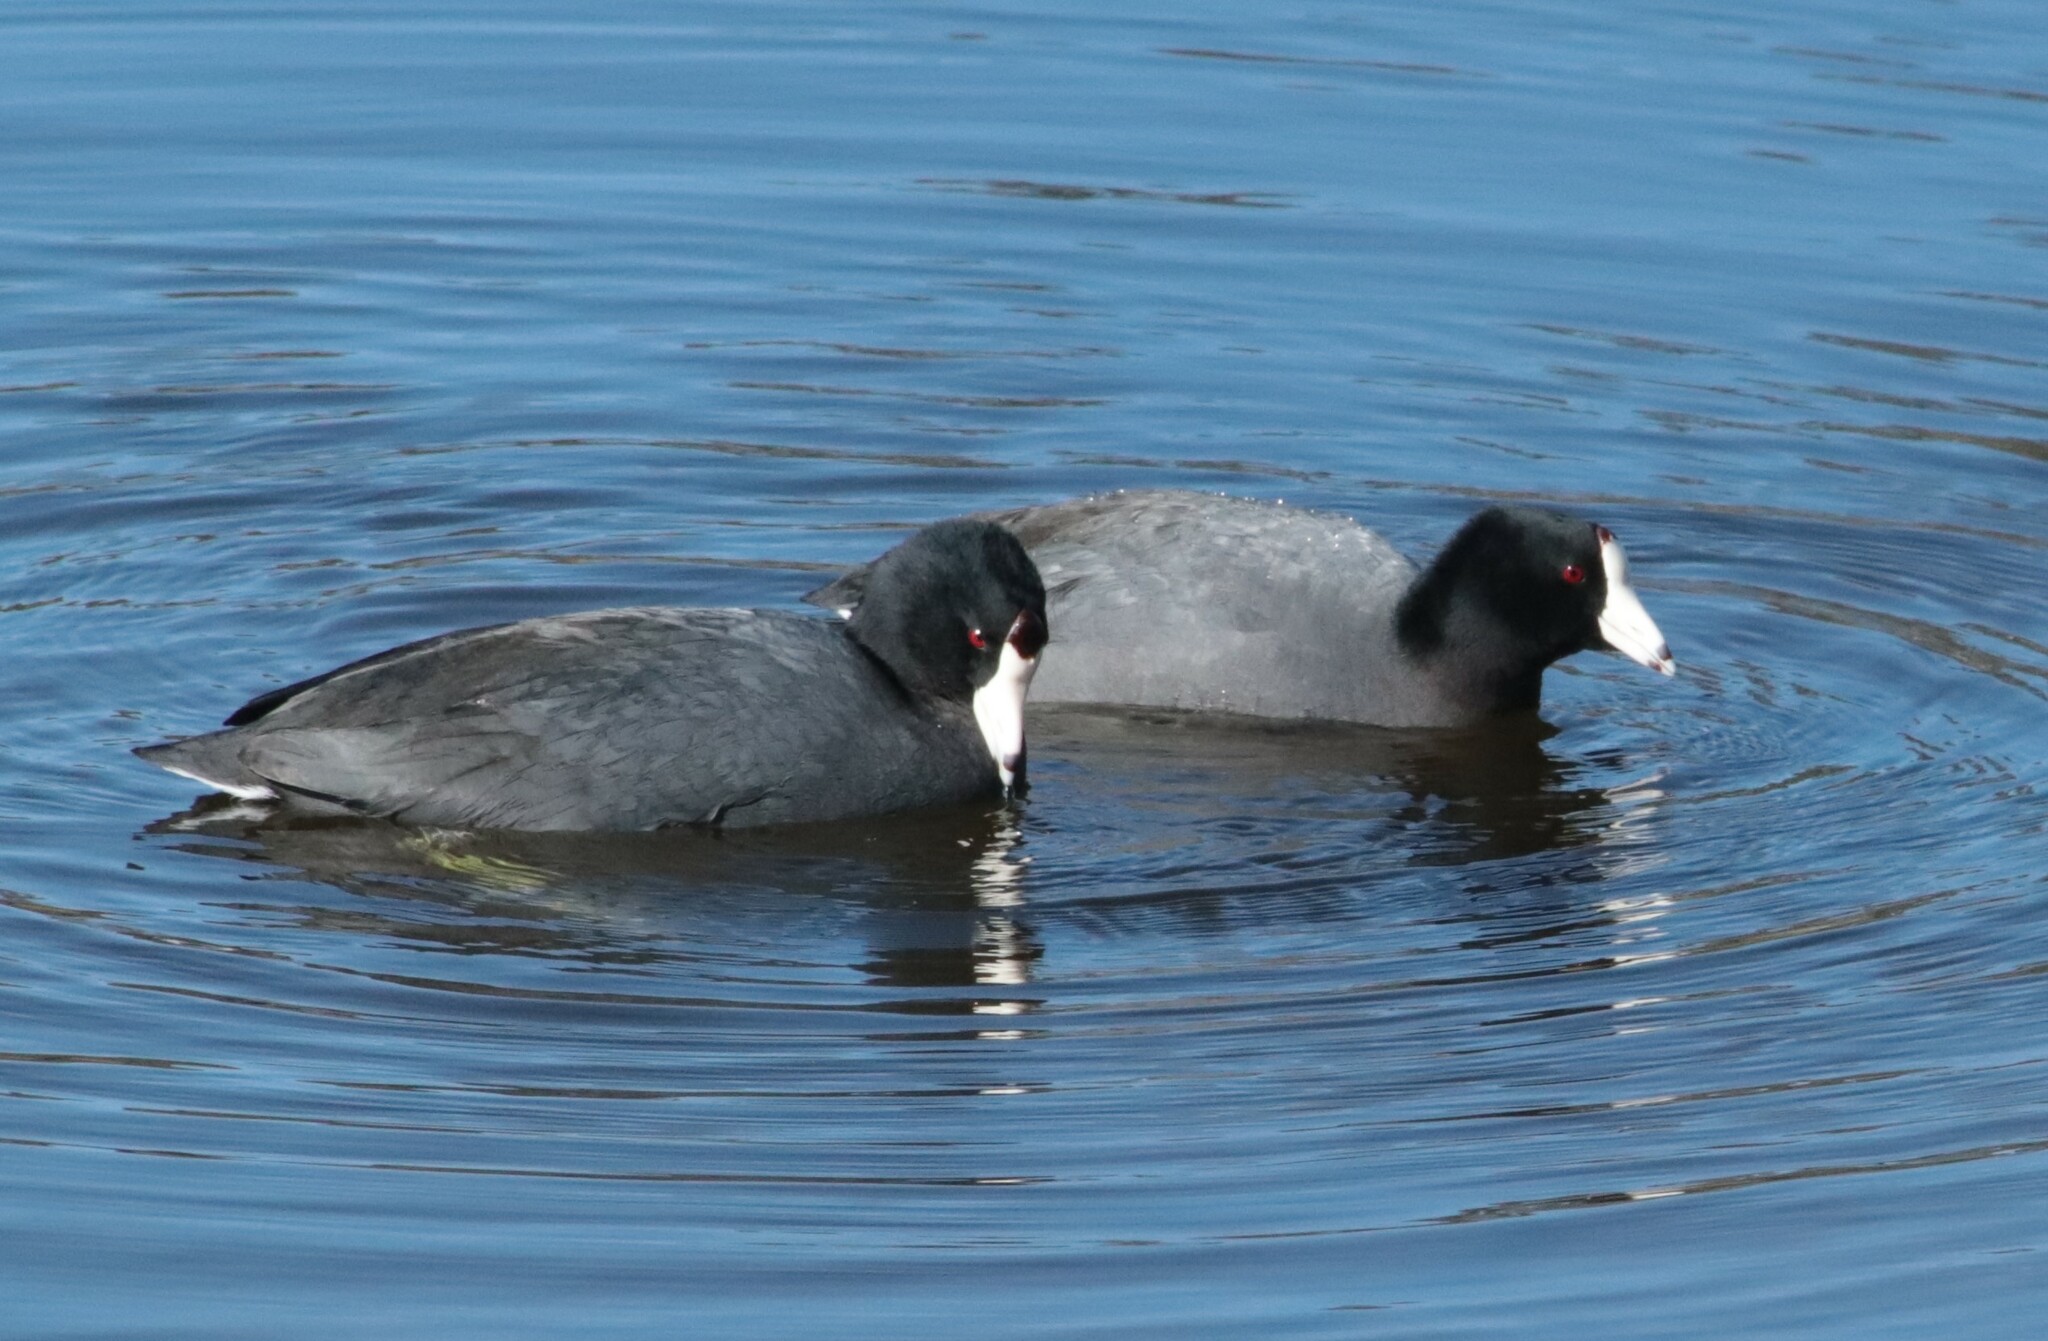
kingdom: Animalia
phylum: Chordata
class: Aves
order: Gruiformes
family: Rallidae
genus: Fulica
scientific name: Fulica americana
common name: American coot
